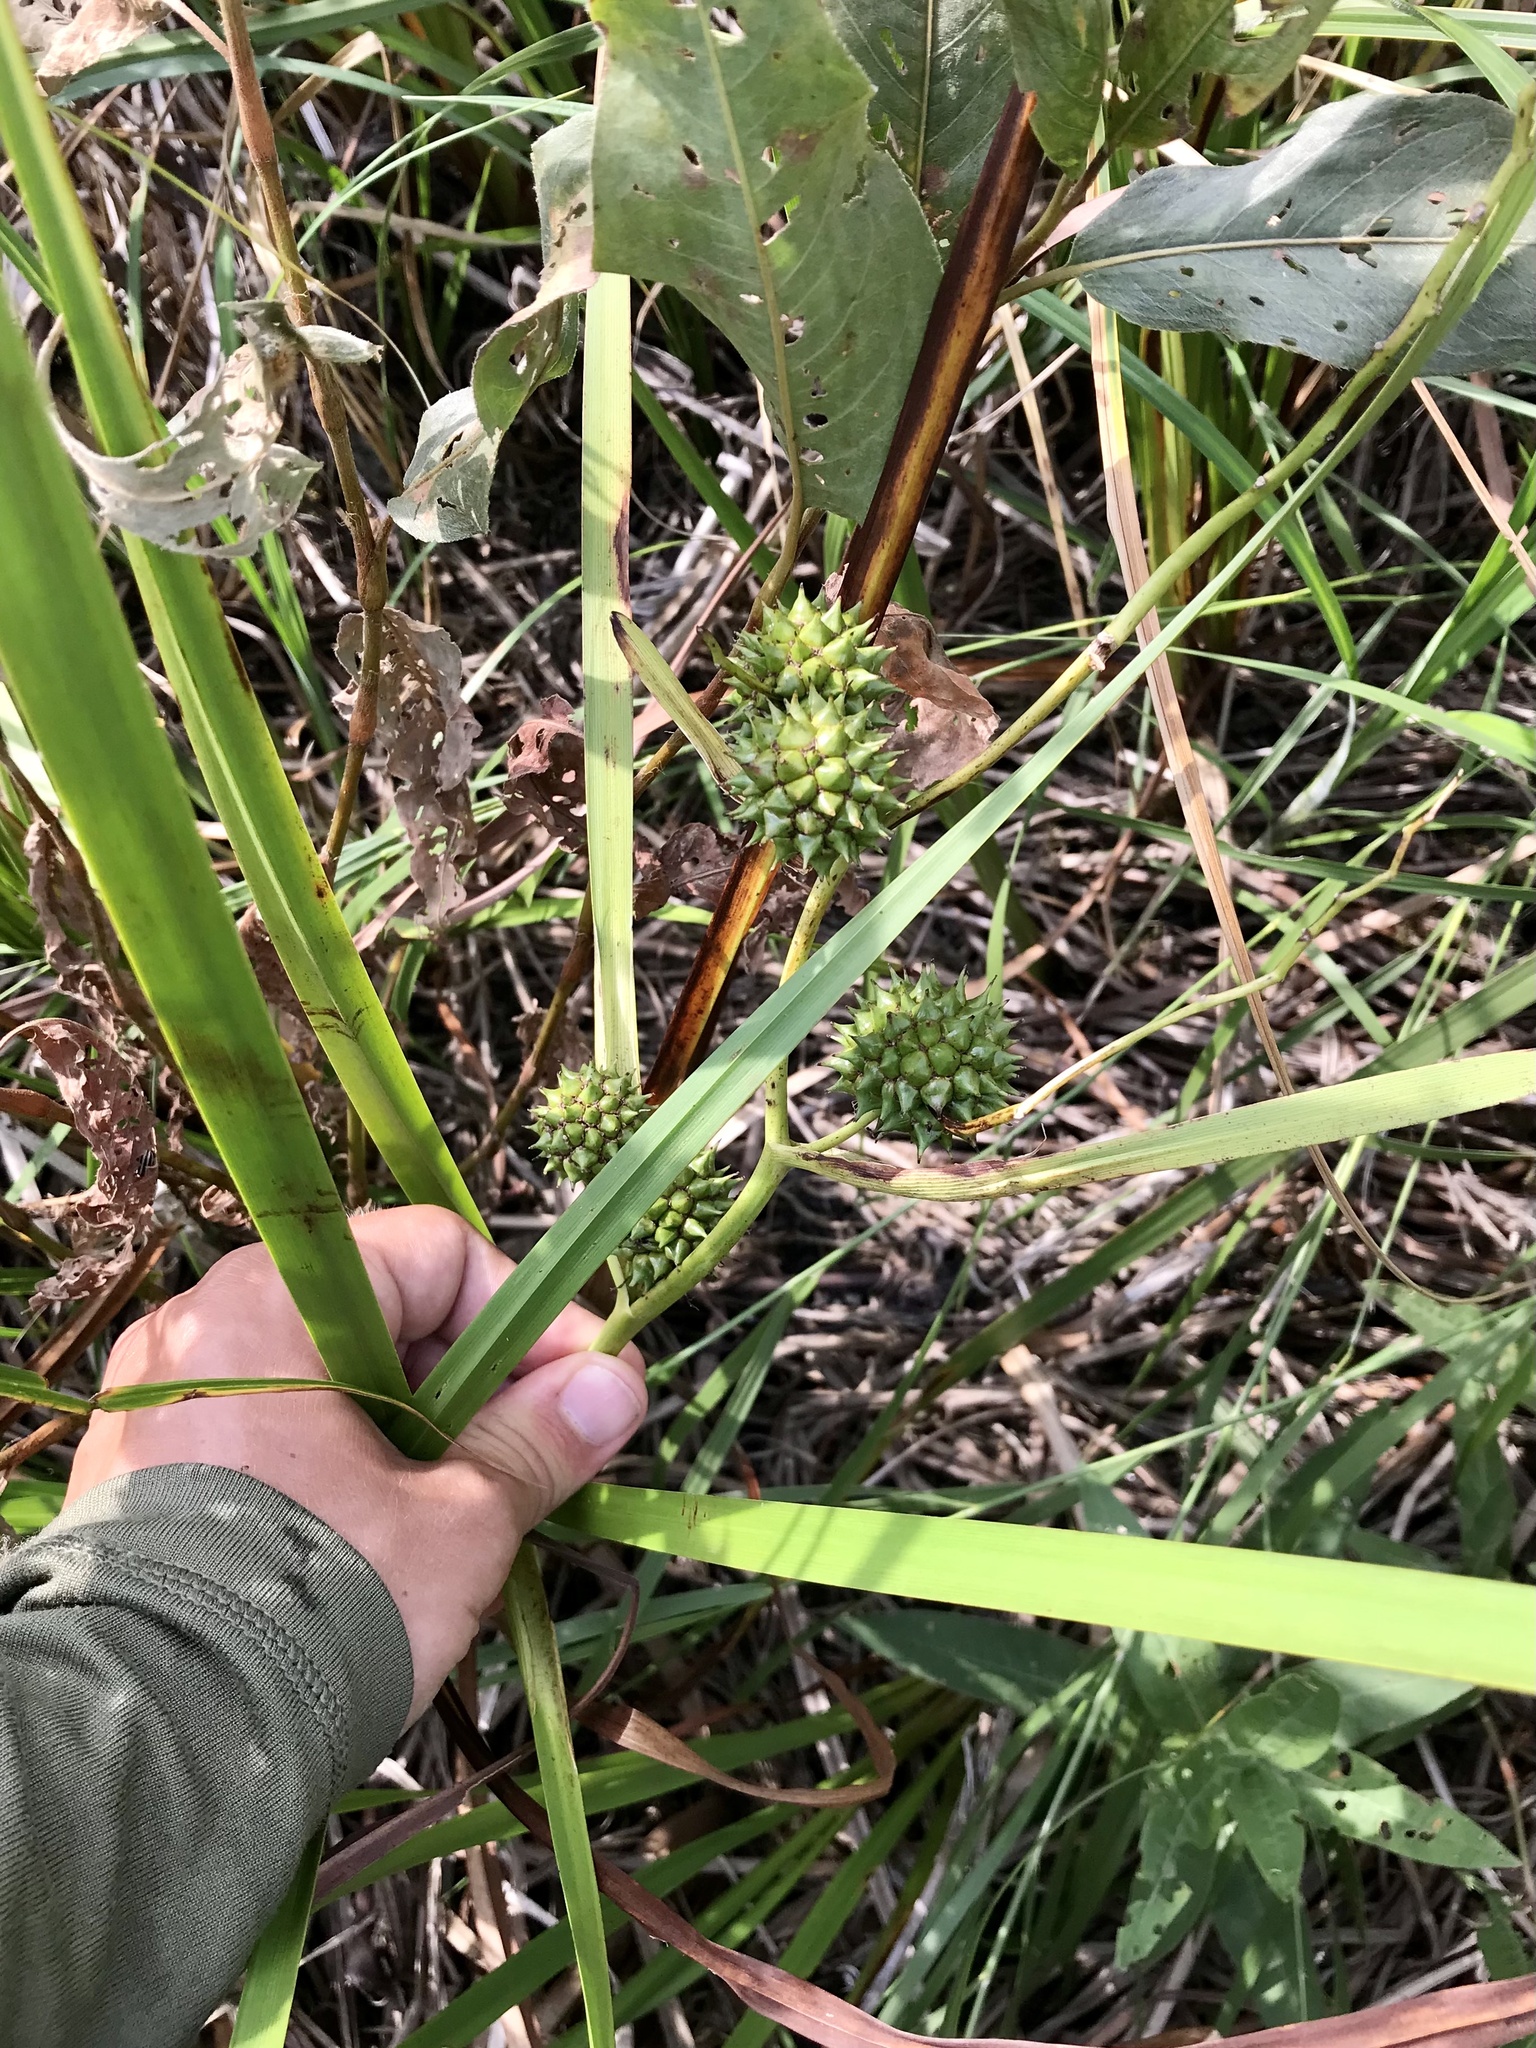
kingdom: Plantae
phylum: Tracheophyta
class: Liliopsida
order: Poales
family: Typhaceae
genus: Sparganium
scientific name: Sparganium eurycarpum
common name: Broad-fruited burreed
